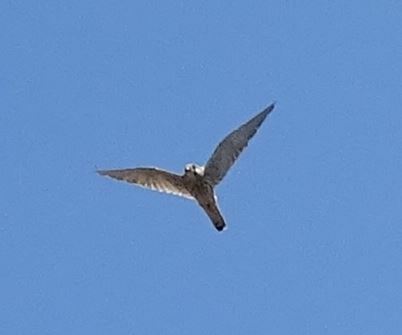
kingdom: Animalia
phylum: Chordata
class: Aves
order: Falconiformes
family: Falconidae
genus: Falco
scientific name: Falco tinnunculus
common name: Common kestrel
